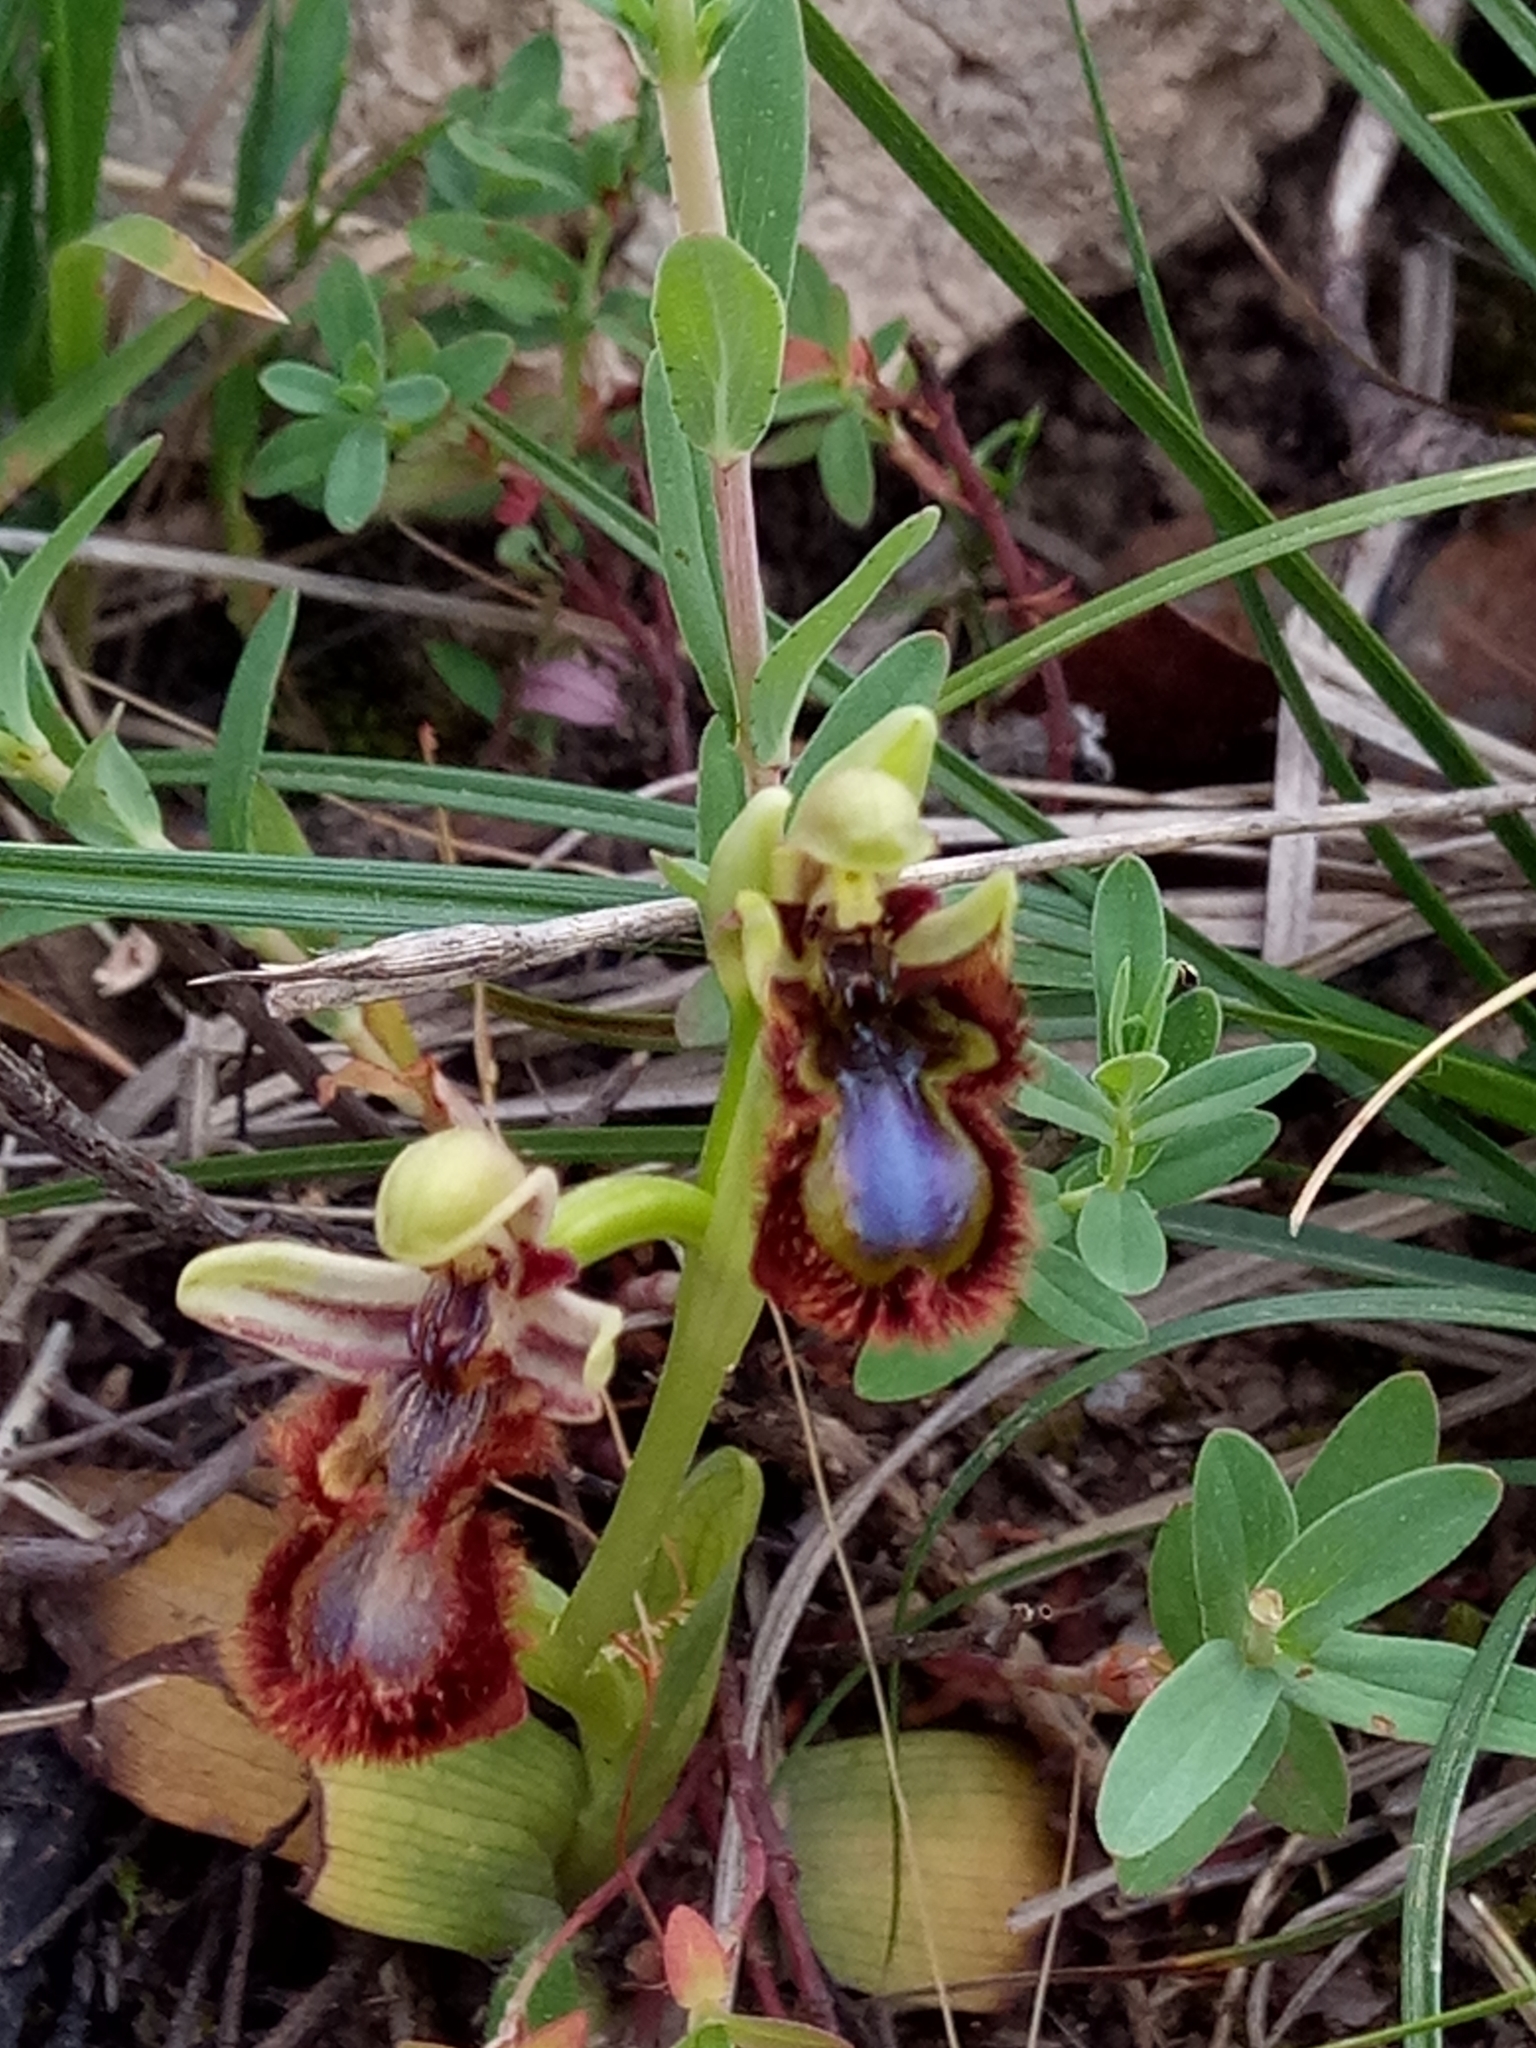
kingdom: Plantae
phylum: Tracheophyta
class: Liliopsida
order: Asparagales
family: Orchidaceae
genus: Ophrys
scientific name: Ophrys speculum
